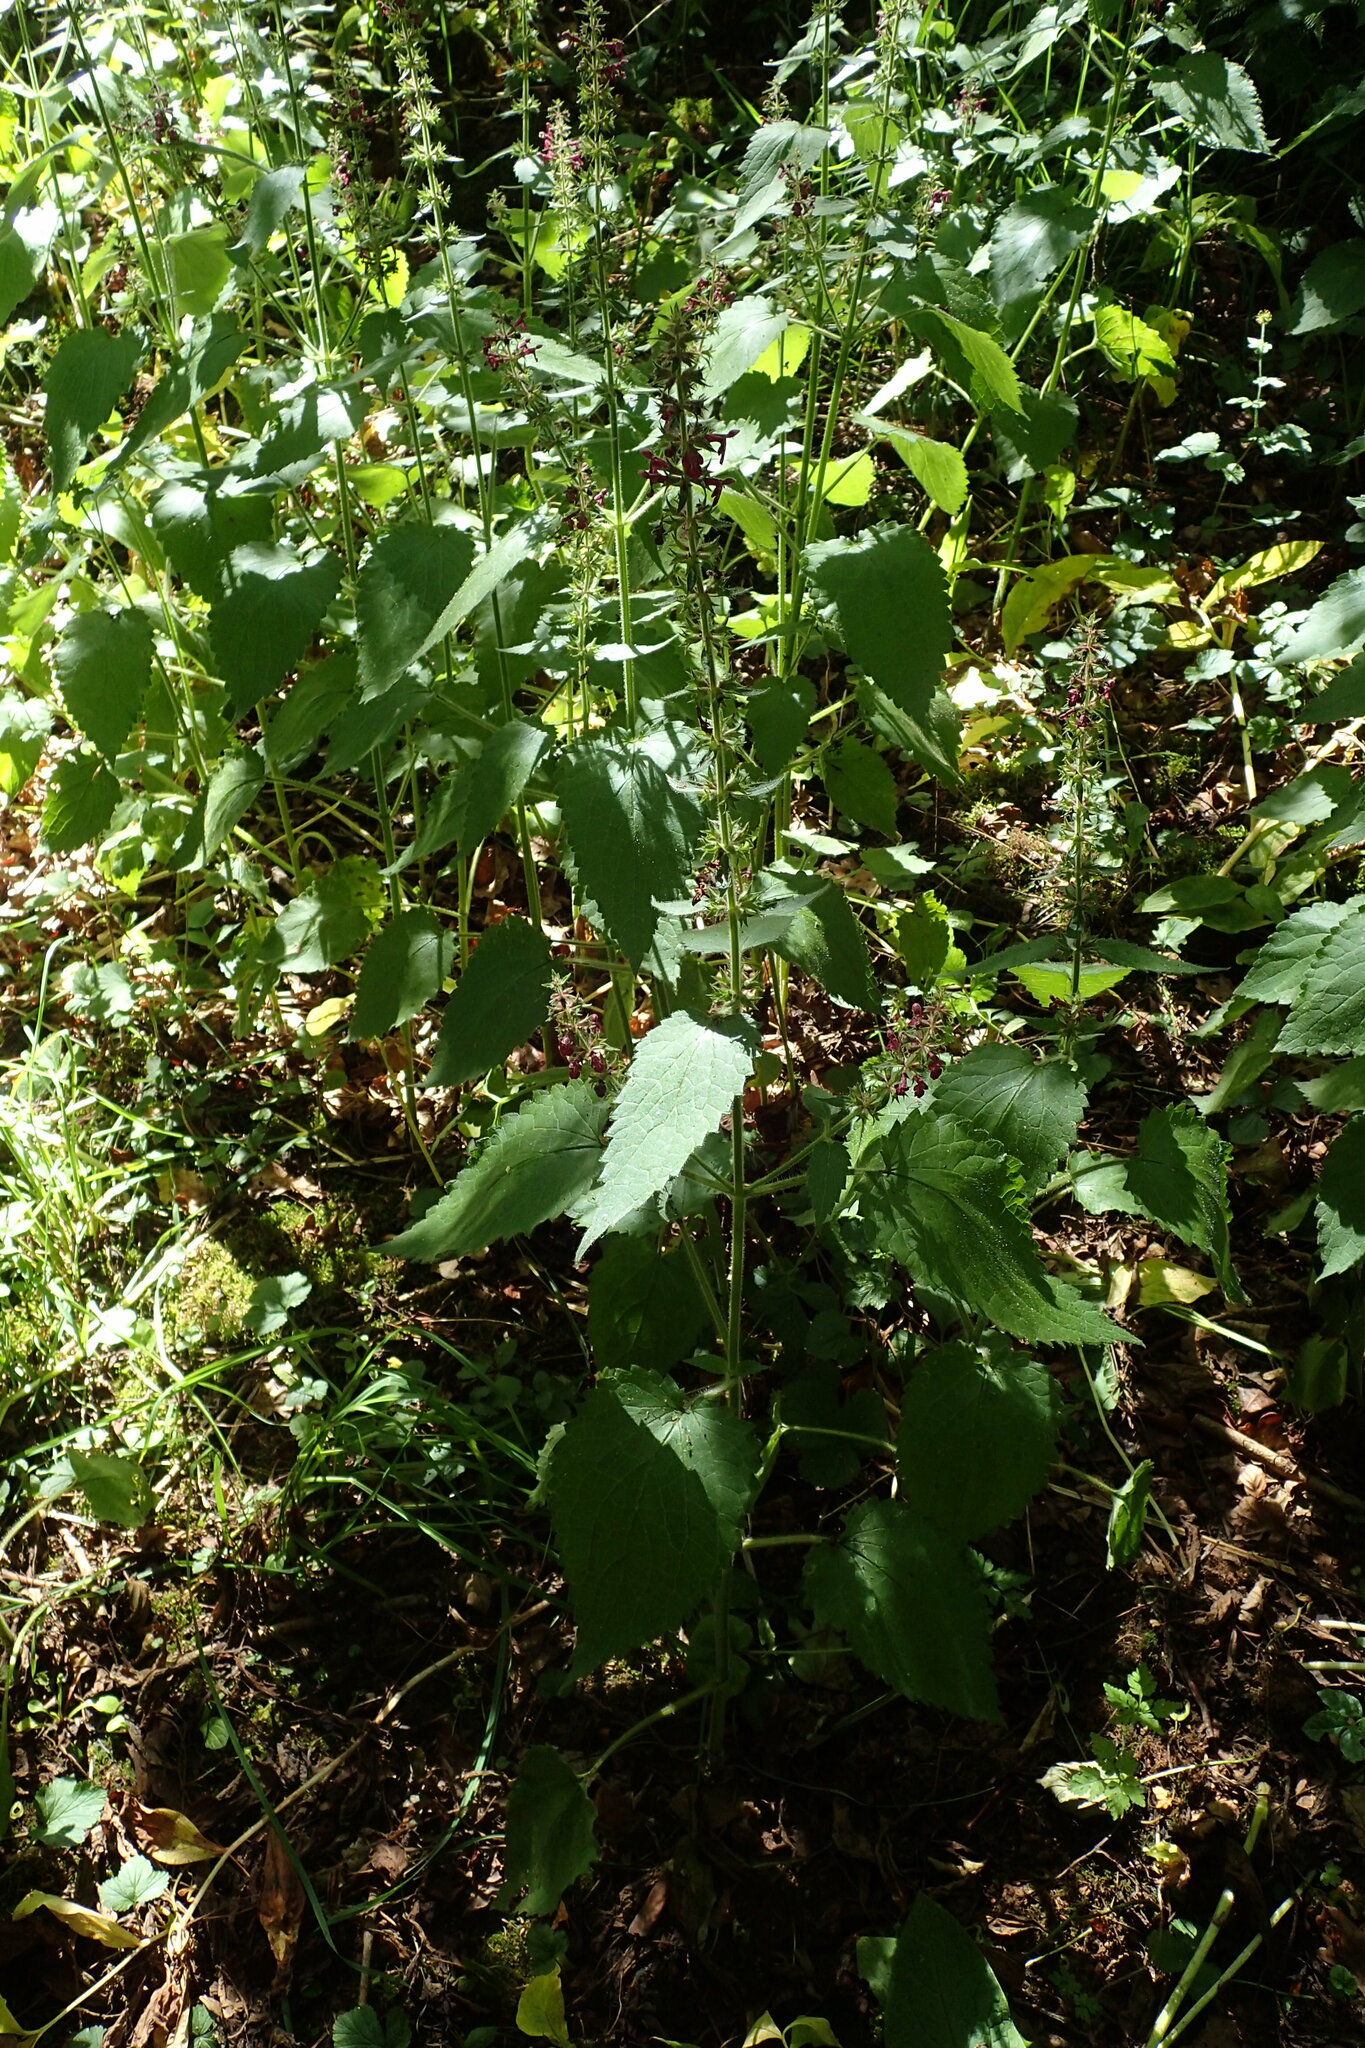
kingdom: Plantae
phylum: Tracheophyta
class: Magnoliopsida
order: Lamiales
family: Lamiaceae
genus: Stachys
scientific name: Stachys sylvatica
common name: Hedge woundwort
